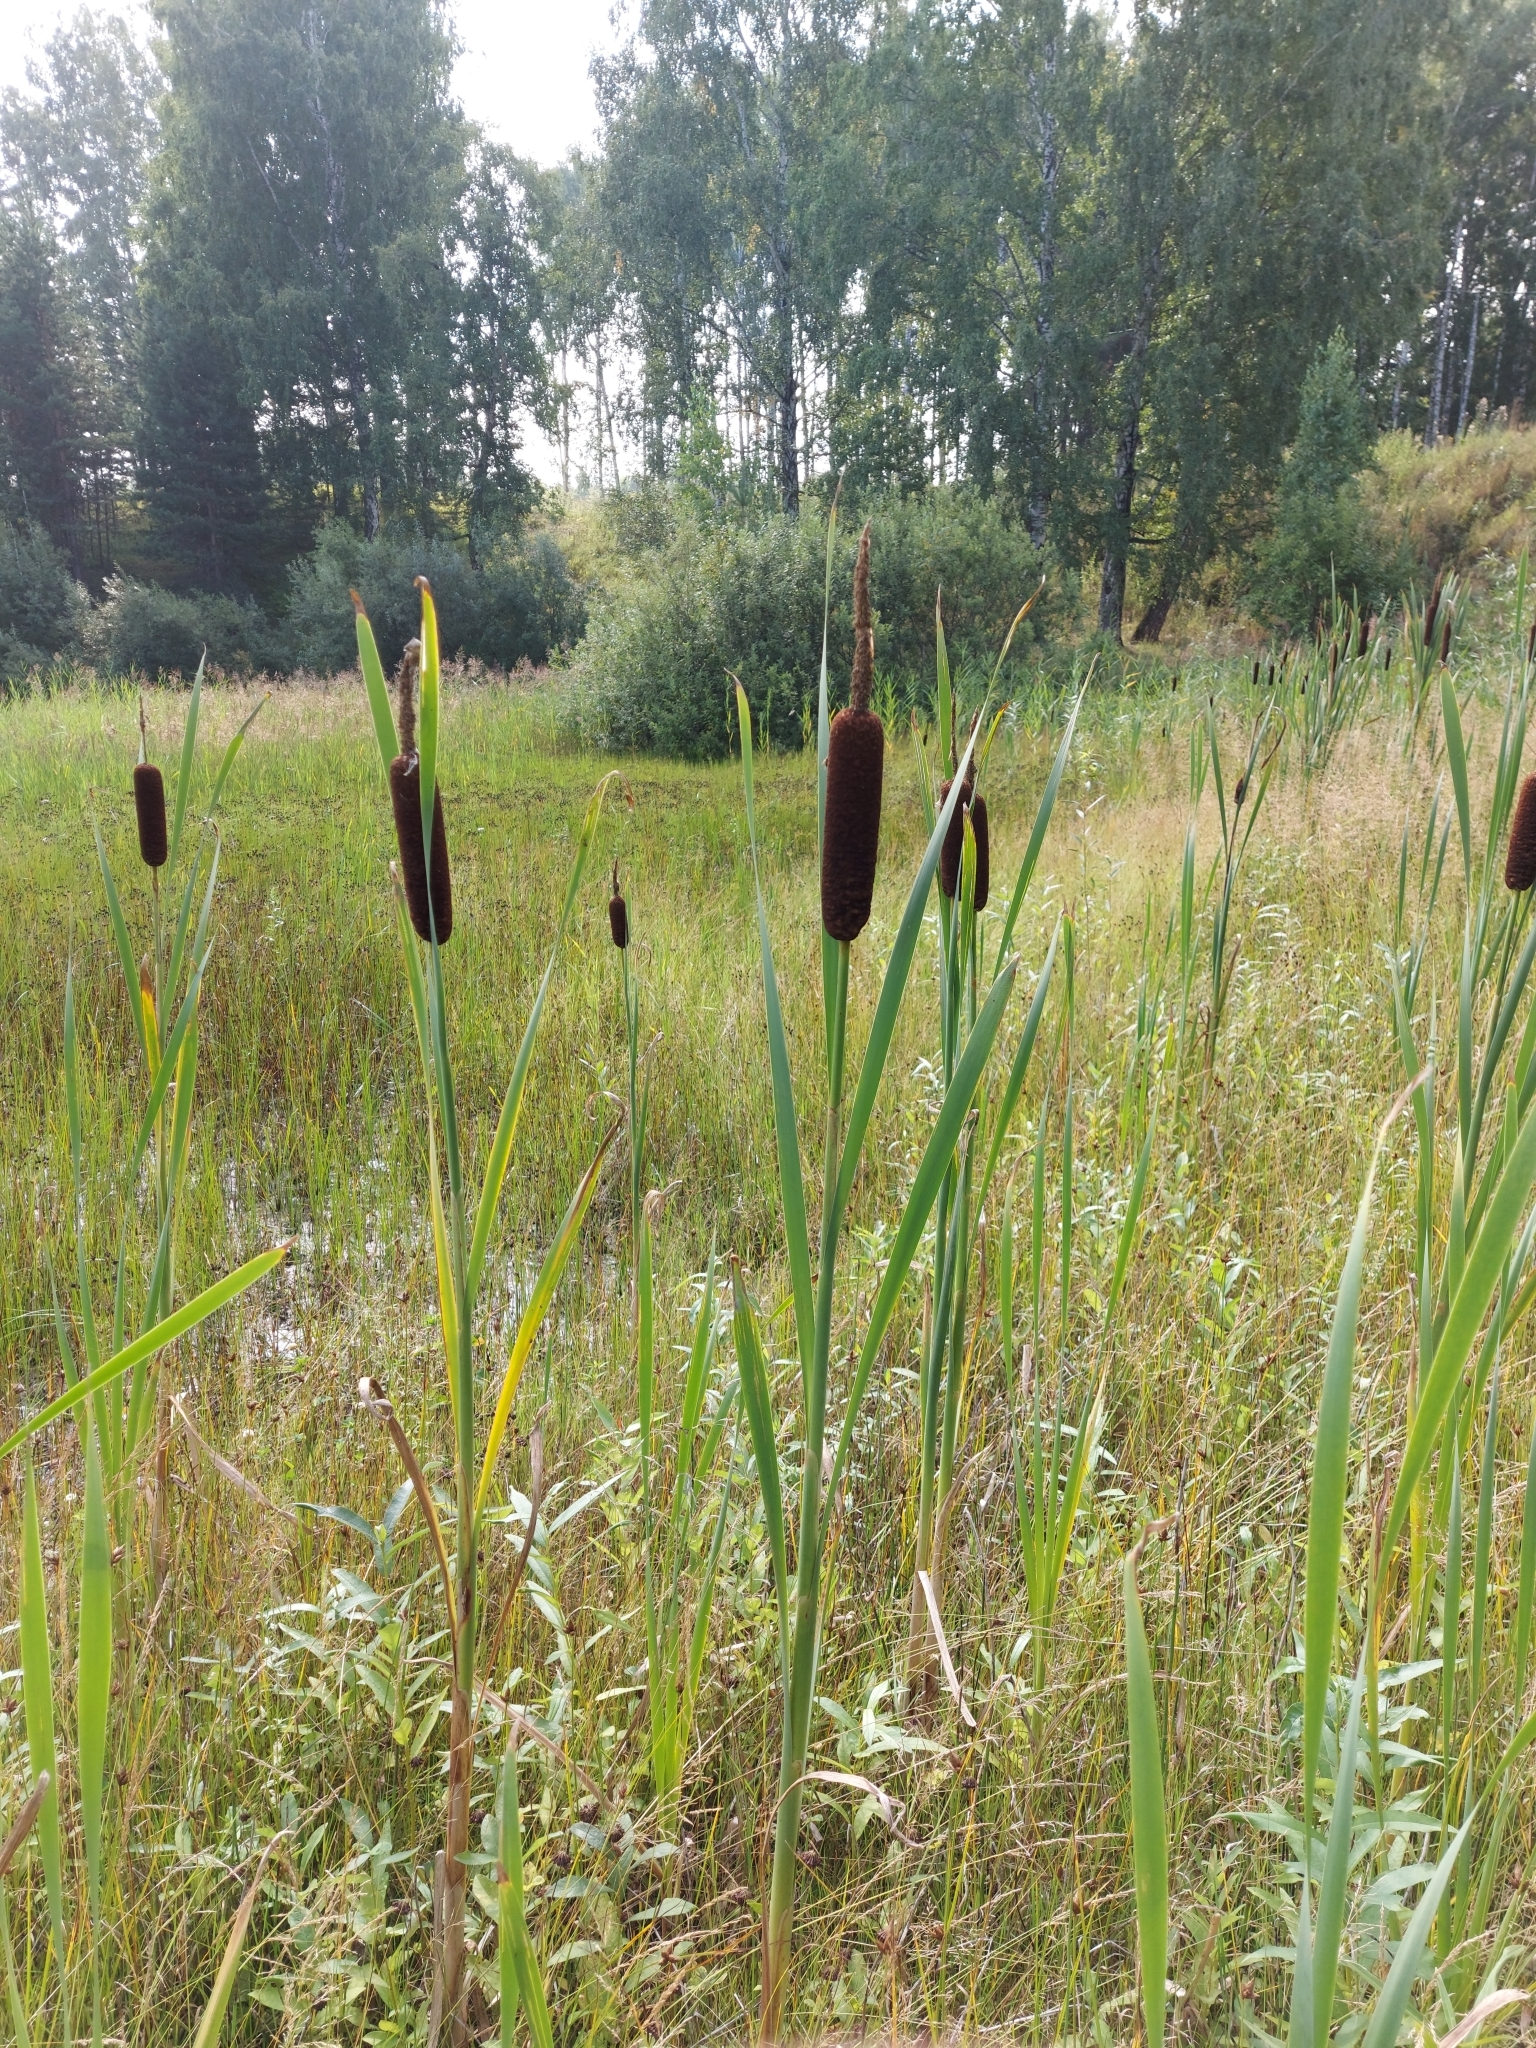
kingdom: Plantae
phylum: Tracheophyta
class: Liliopsida
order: Poales
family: Typhaceae
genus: Typha
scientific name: Typha latifolia
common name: Broadleaf cattail
